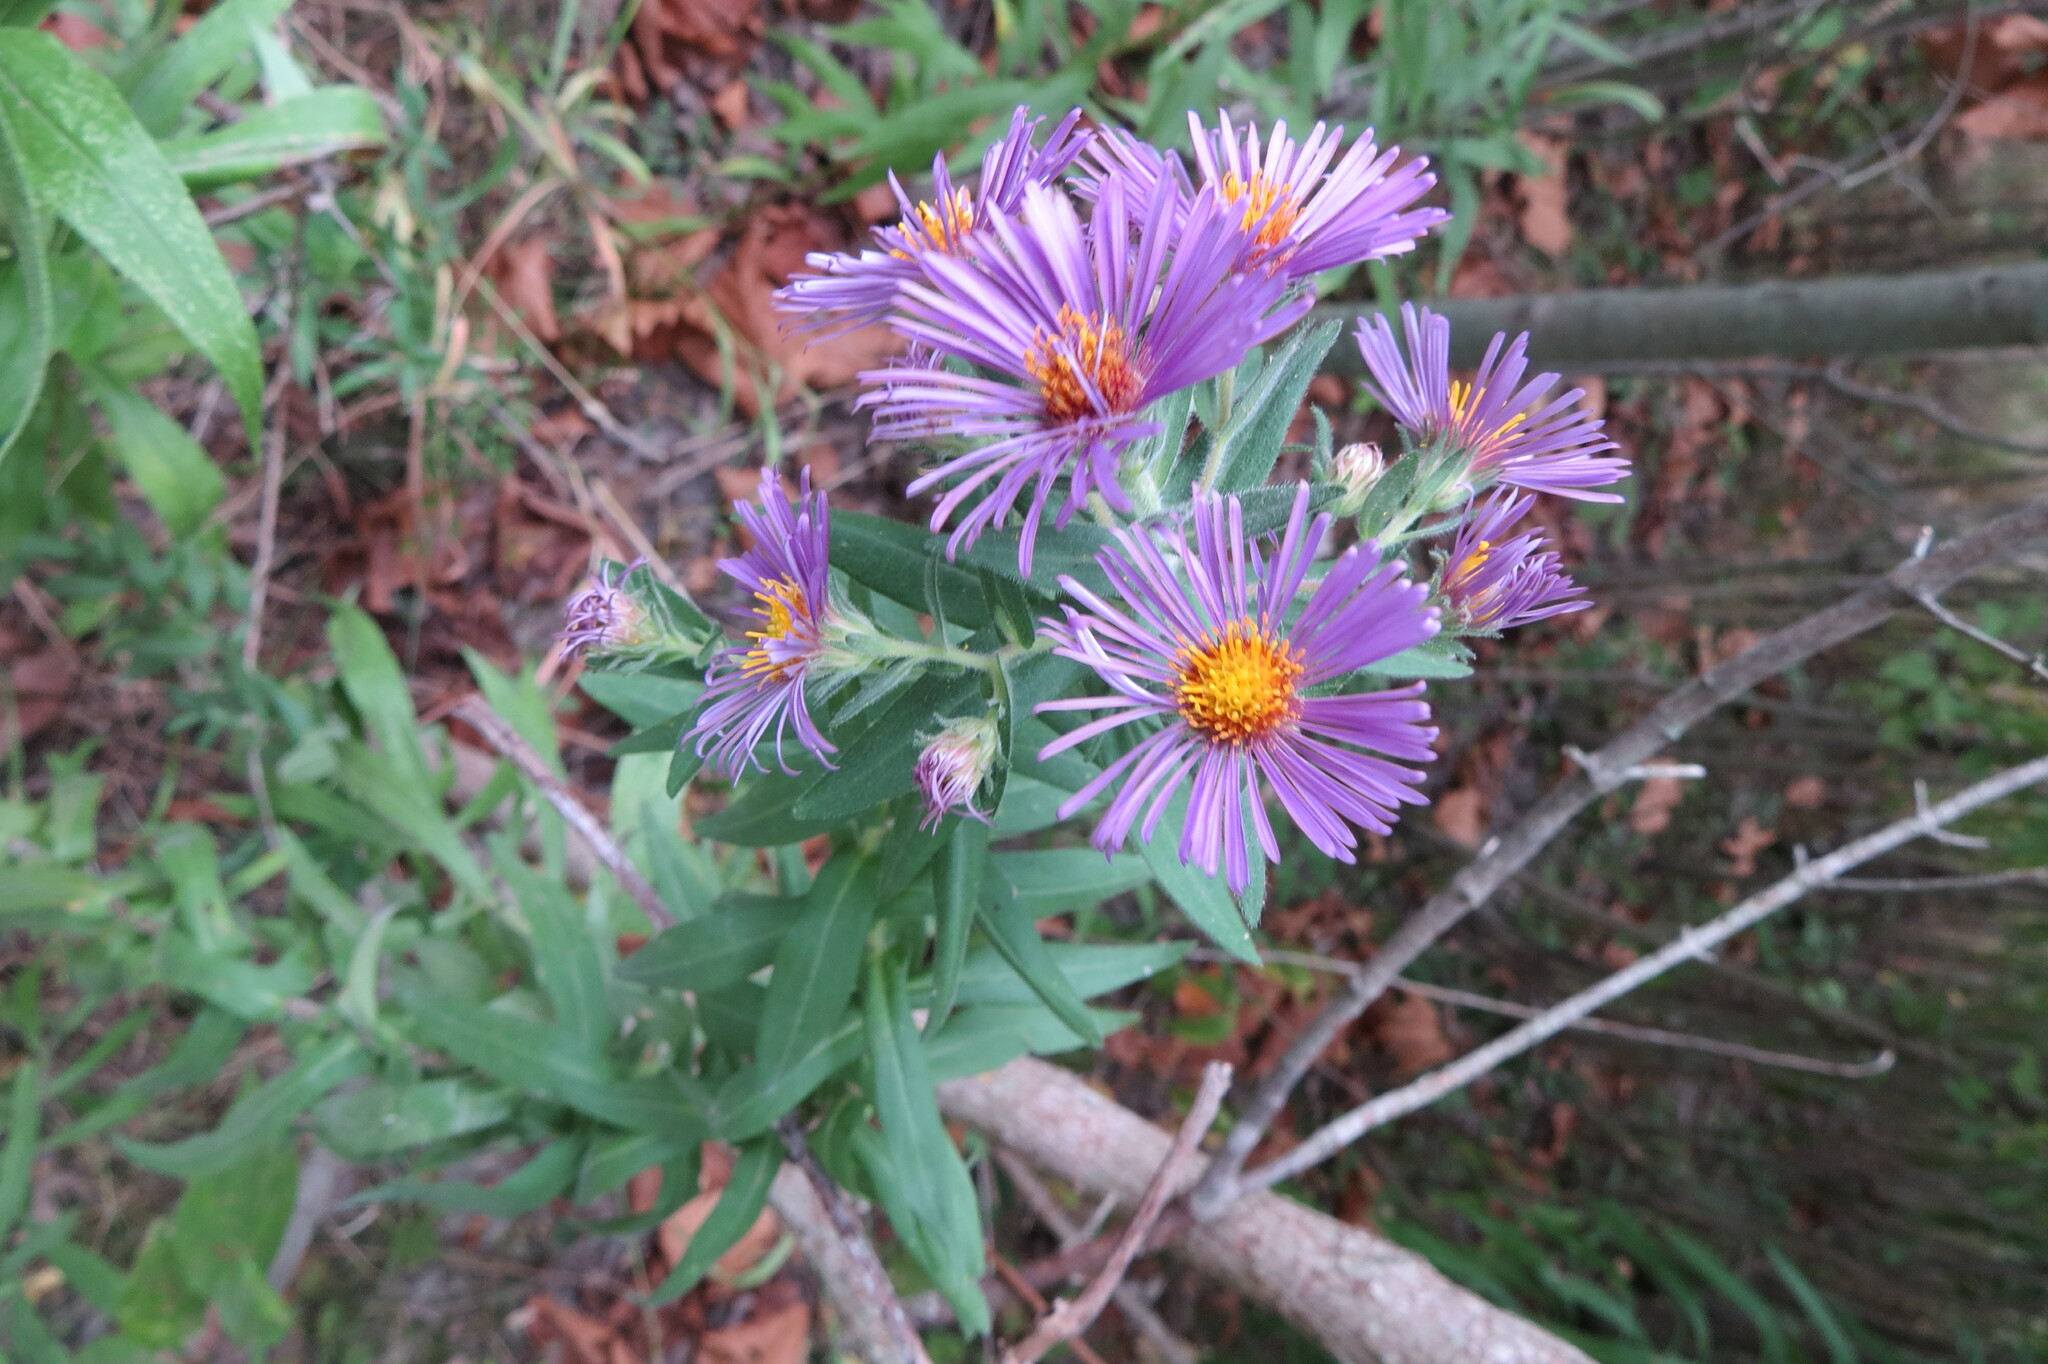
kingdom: Plantae
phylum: Tracheophyta
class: Magnoliopsida
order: Asterales
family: Asteraceae
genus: Symphyotrichum
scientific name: Symphyotrichum novae-angliae
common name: Michaelmas daisy
